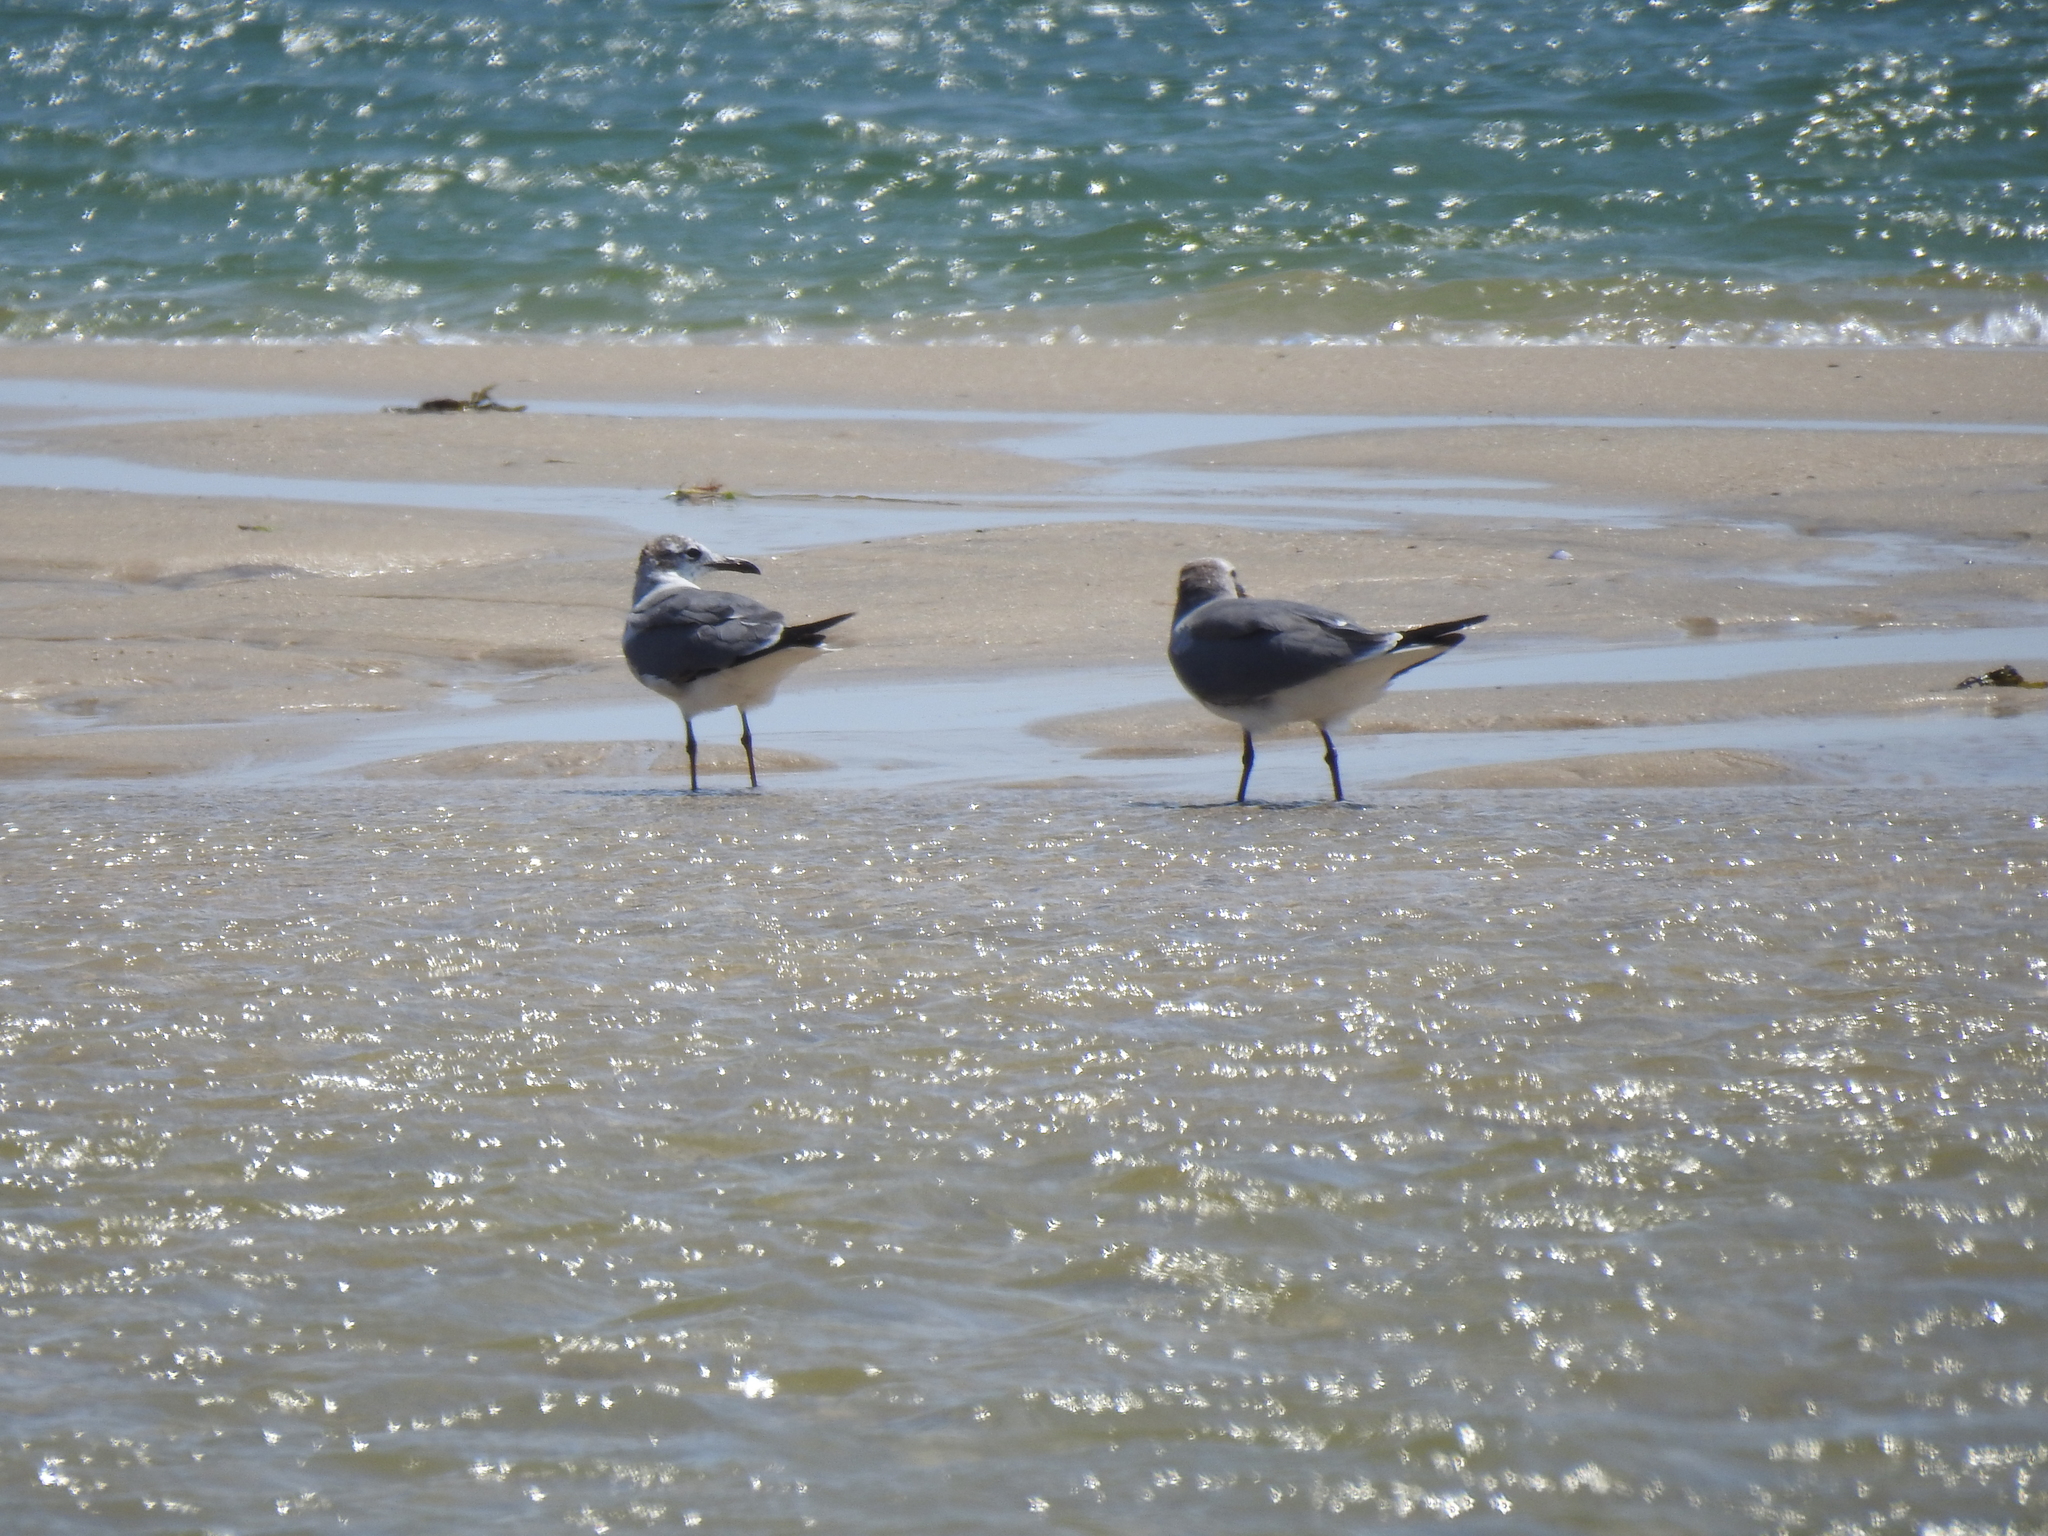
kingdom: Animalia
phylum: Chordata
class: Aves
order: Charadriiformes
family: Laridae
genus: Leucophaeus
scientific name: Leucophaeus atricilla
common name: Laughing gull
